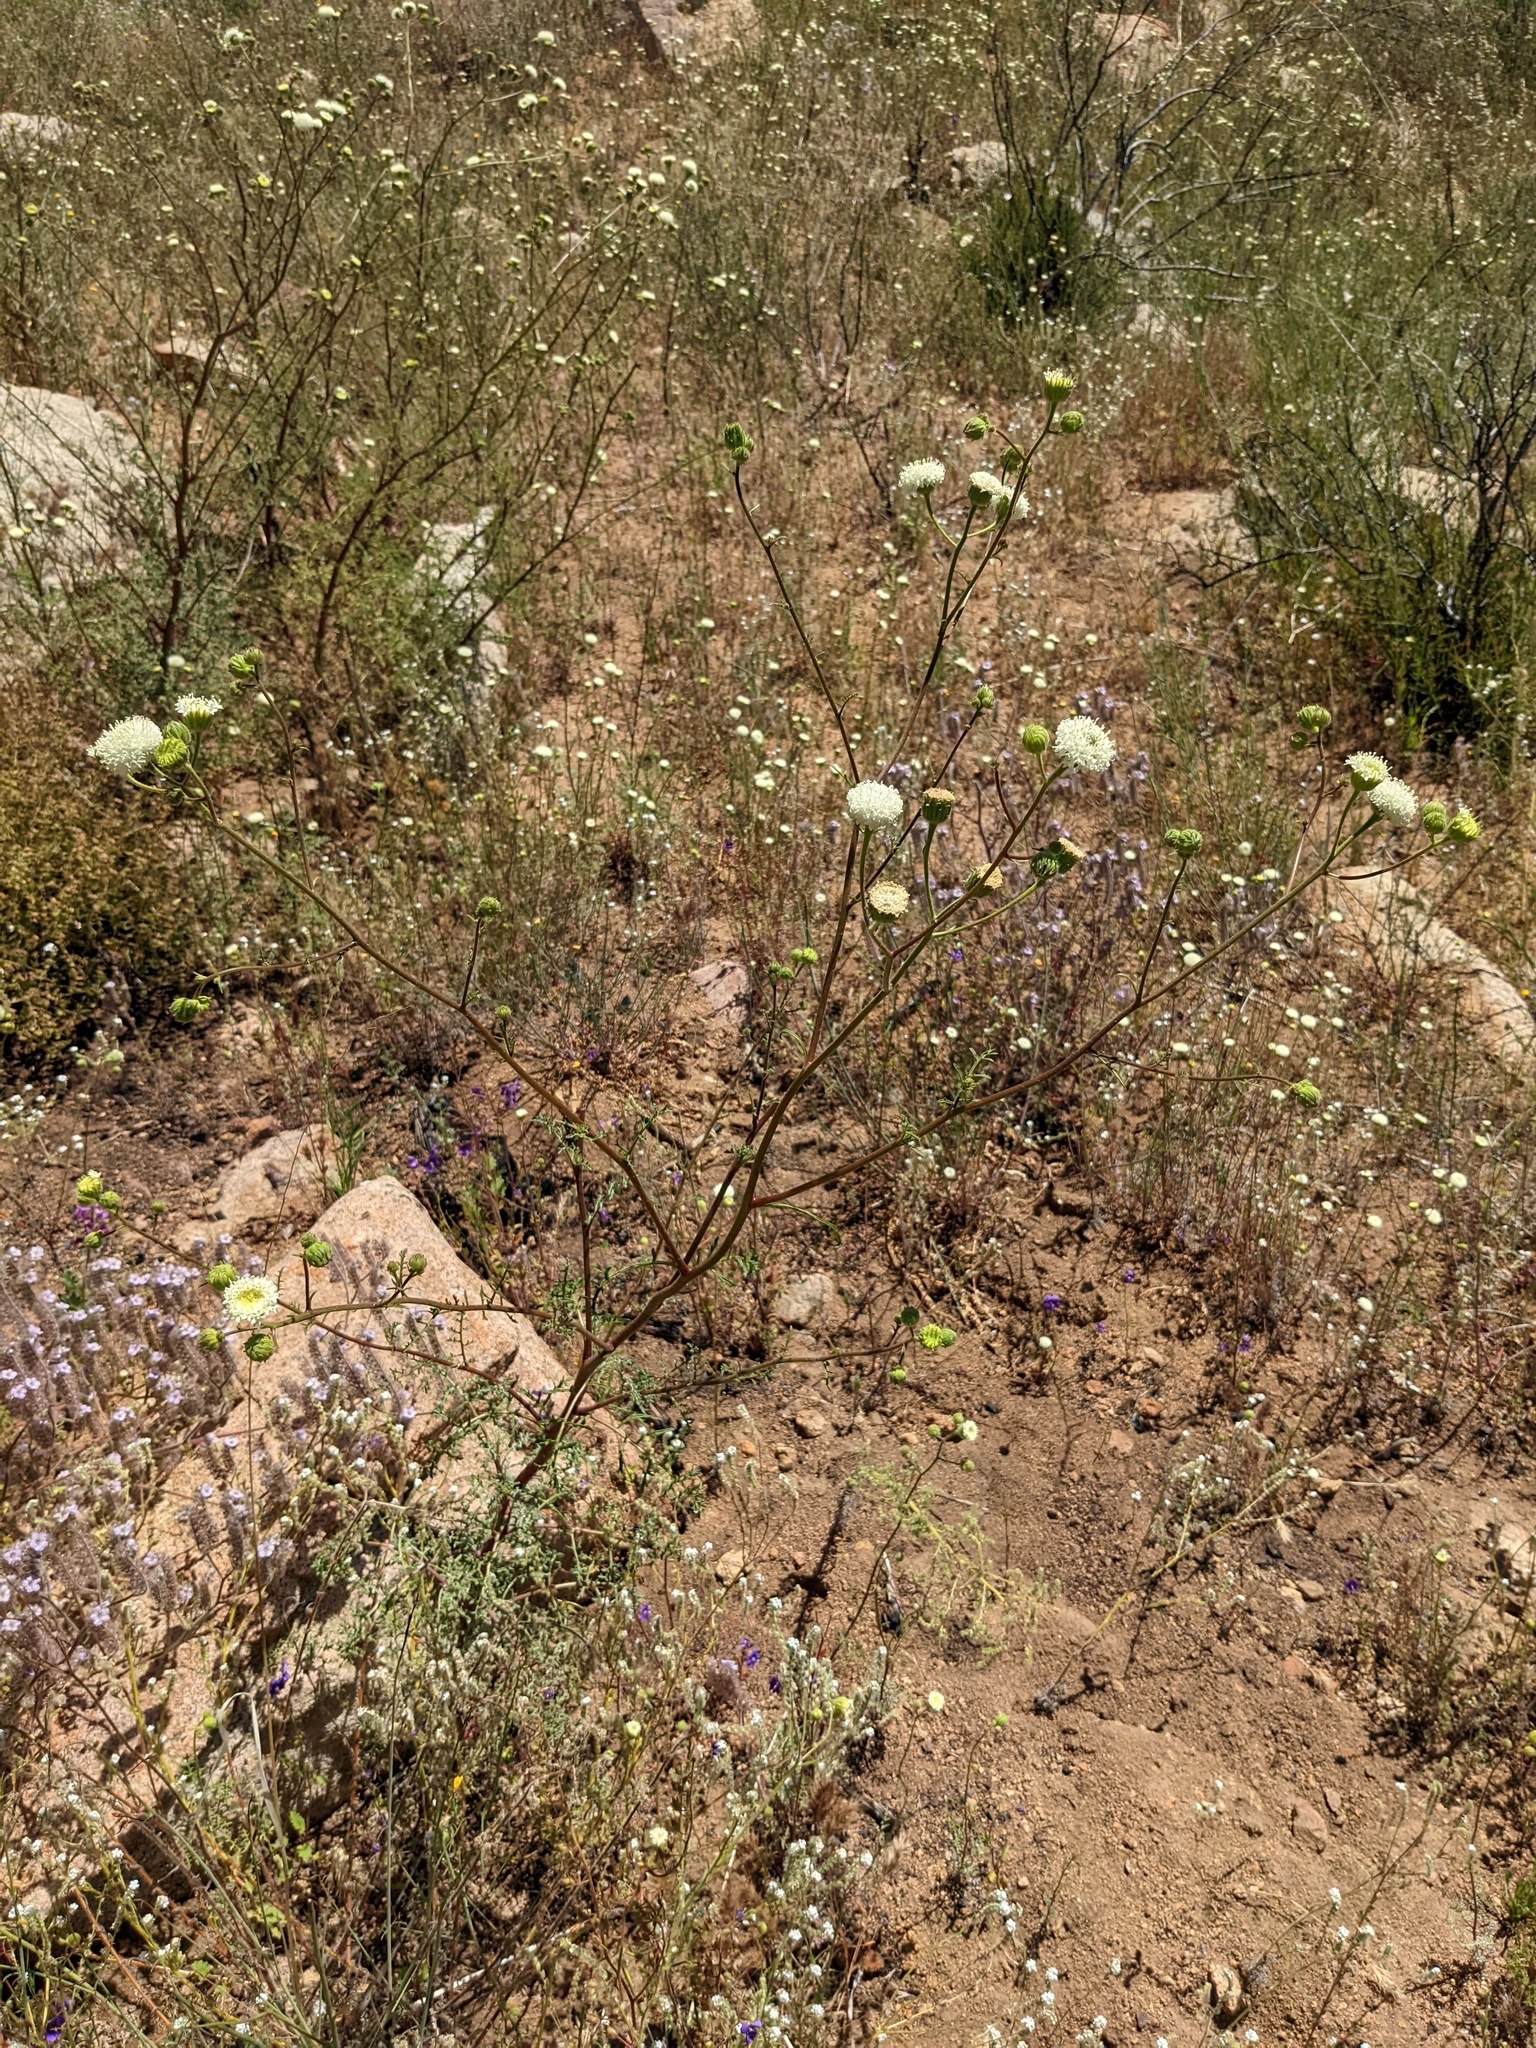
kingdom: Plantae
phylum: Tracheophyta
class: Magnoliopsida
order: Asterales
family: Asteraceae
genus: Chaenactis
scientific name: Chaenactis artemisiifolia
